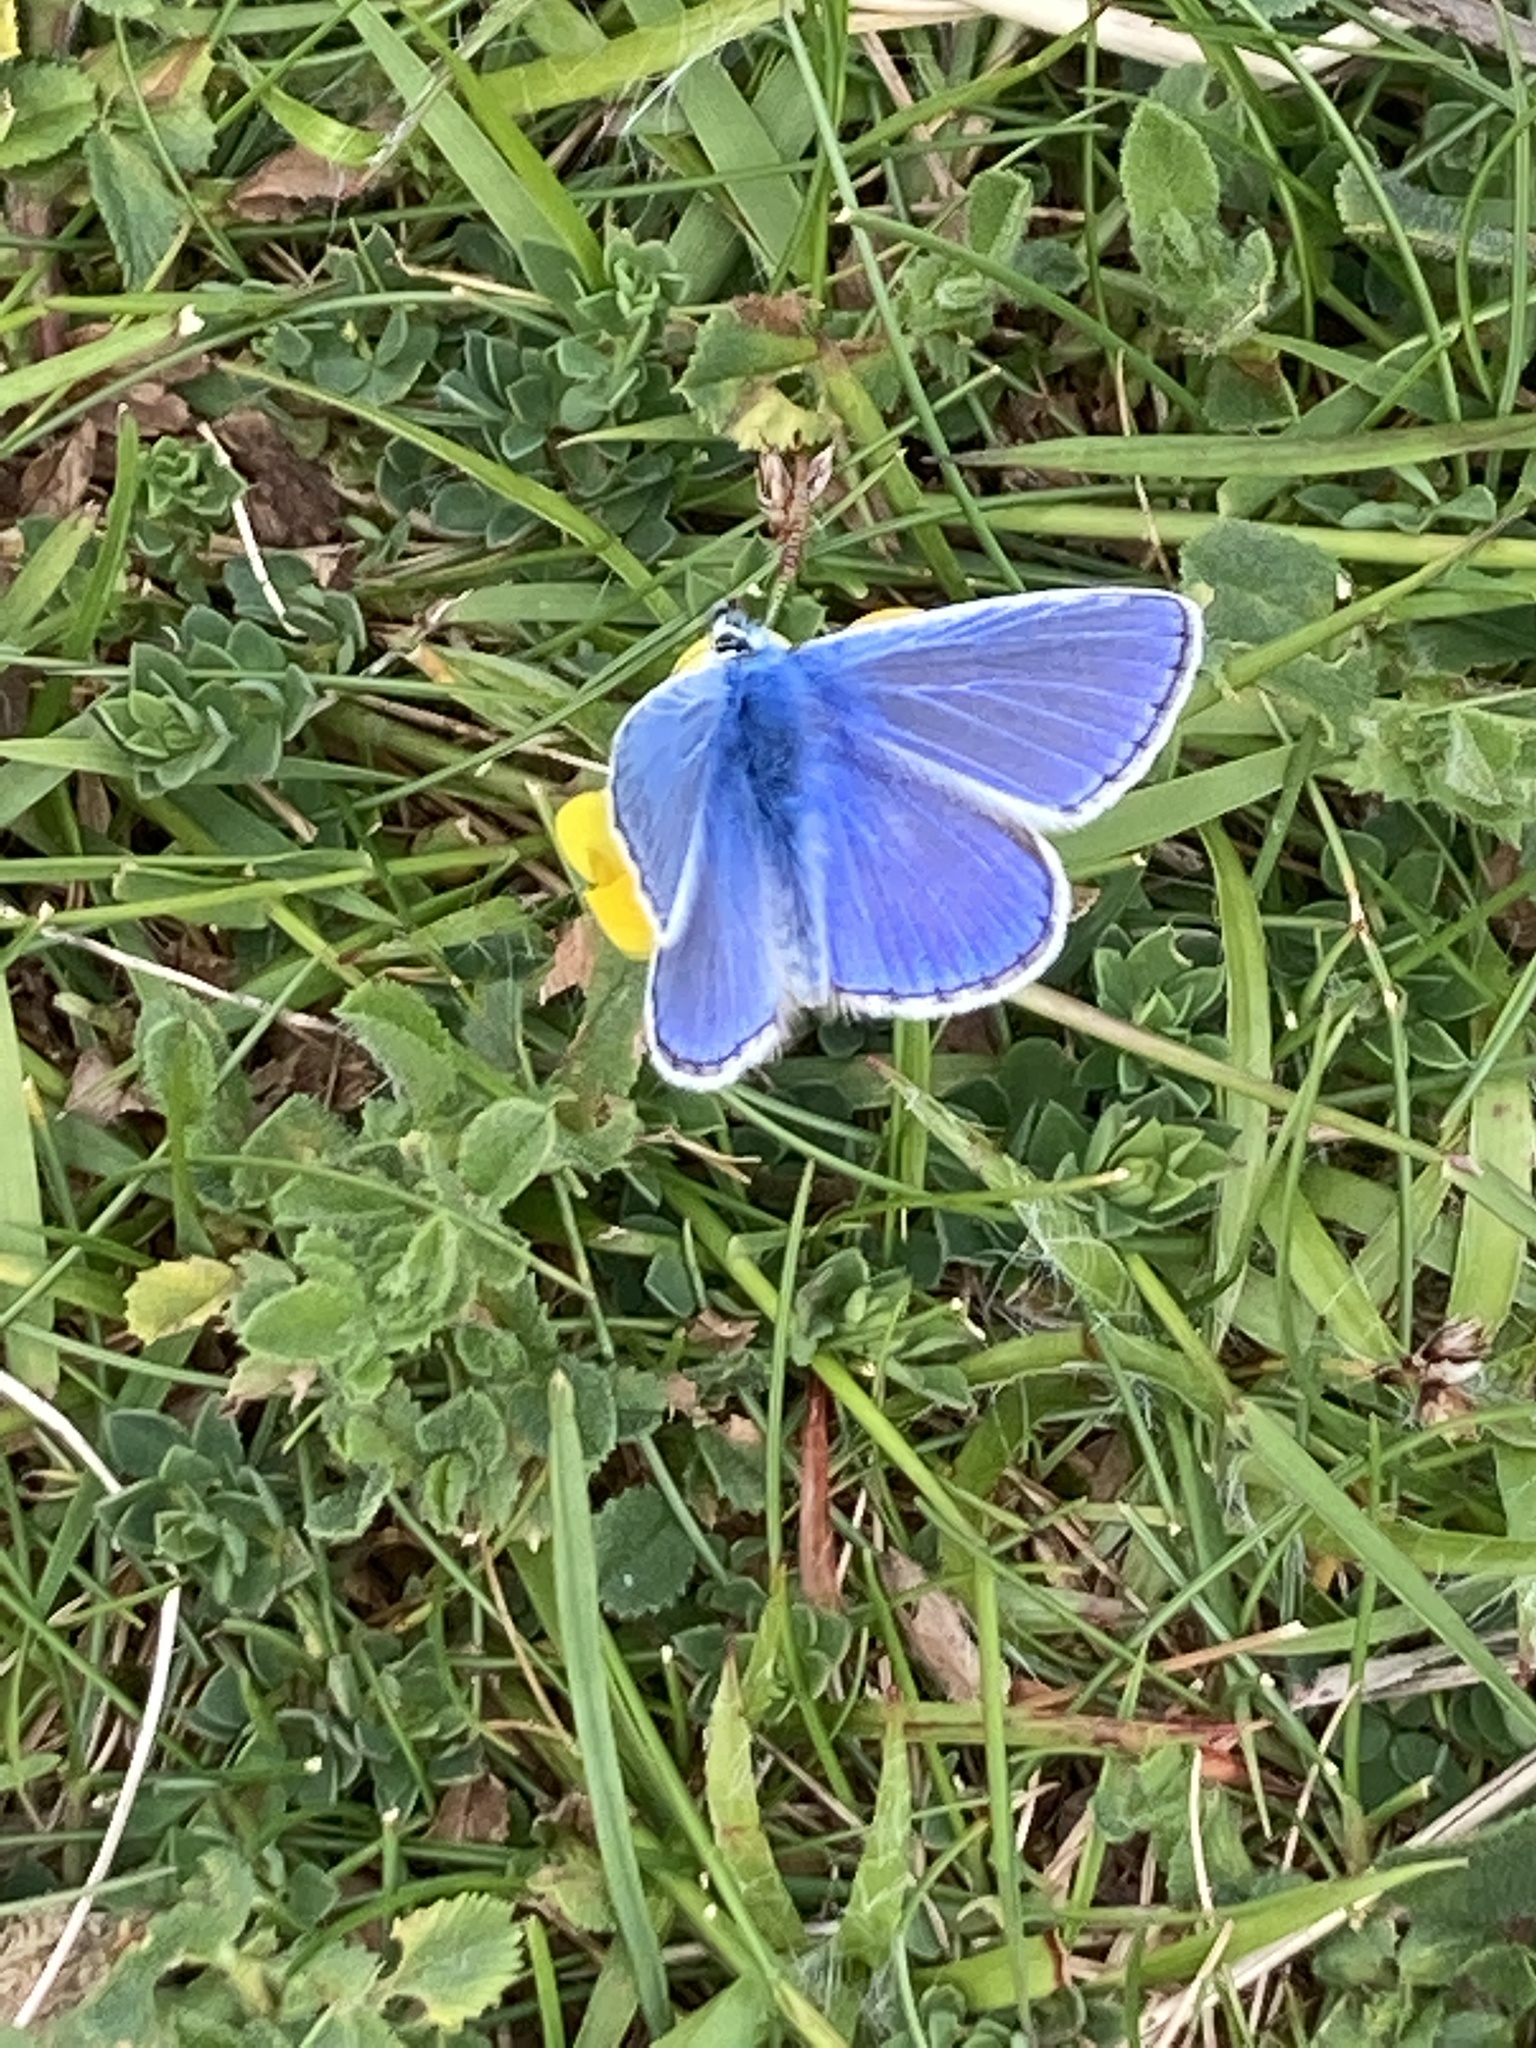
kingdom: Animalia
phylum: Arthropoda
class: Insecta
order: Lepidoptera
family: Lycaenidae
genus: Polyommatus
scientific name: Polyommatus icarus
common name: Common blue
